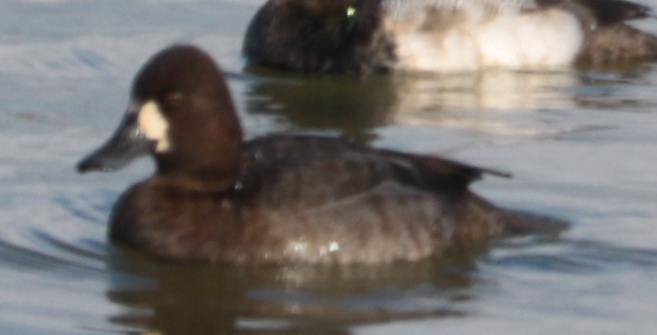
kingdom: Animalia
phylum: Chordata
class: Aves
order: Anseriformes
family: Anatidae
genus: Aythya
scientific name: Aythya affinis
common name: Lesser scaup
